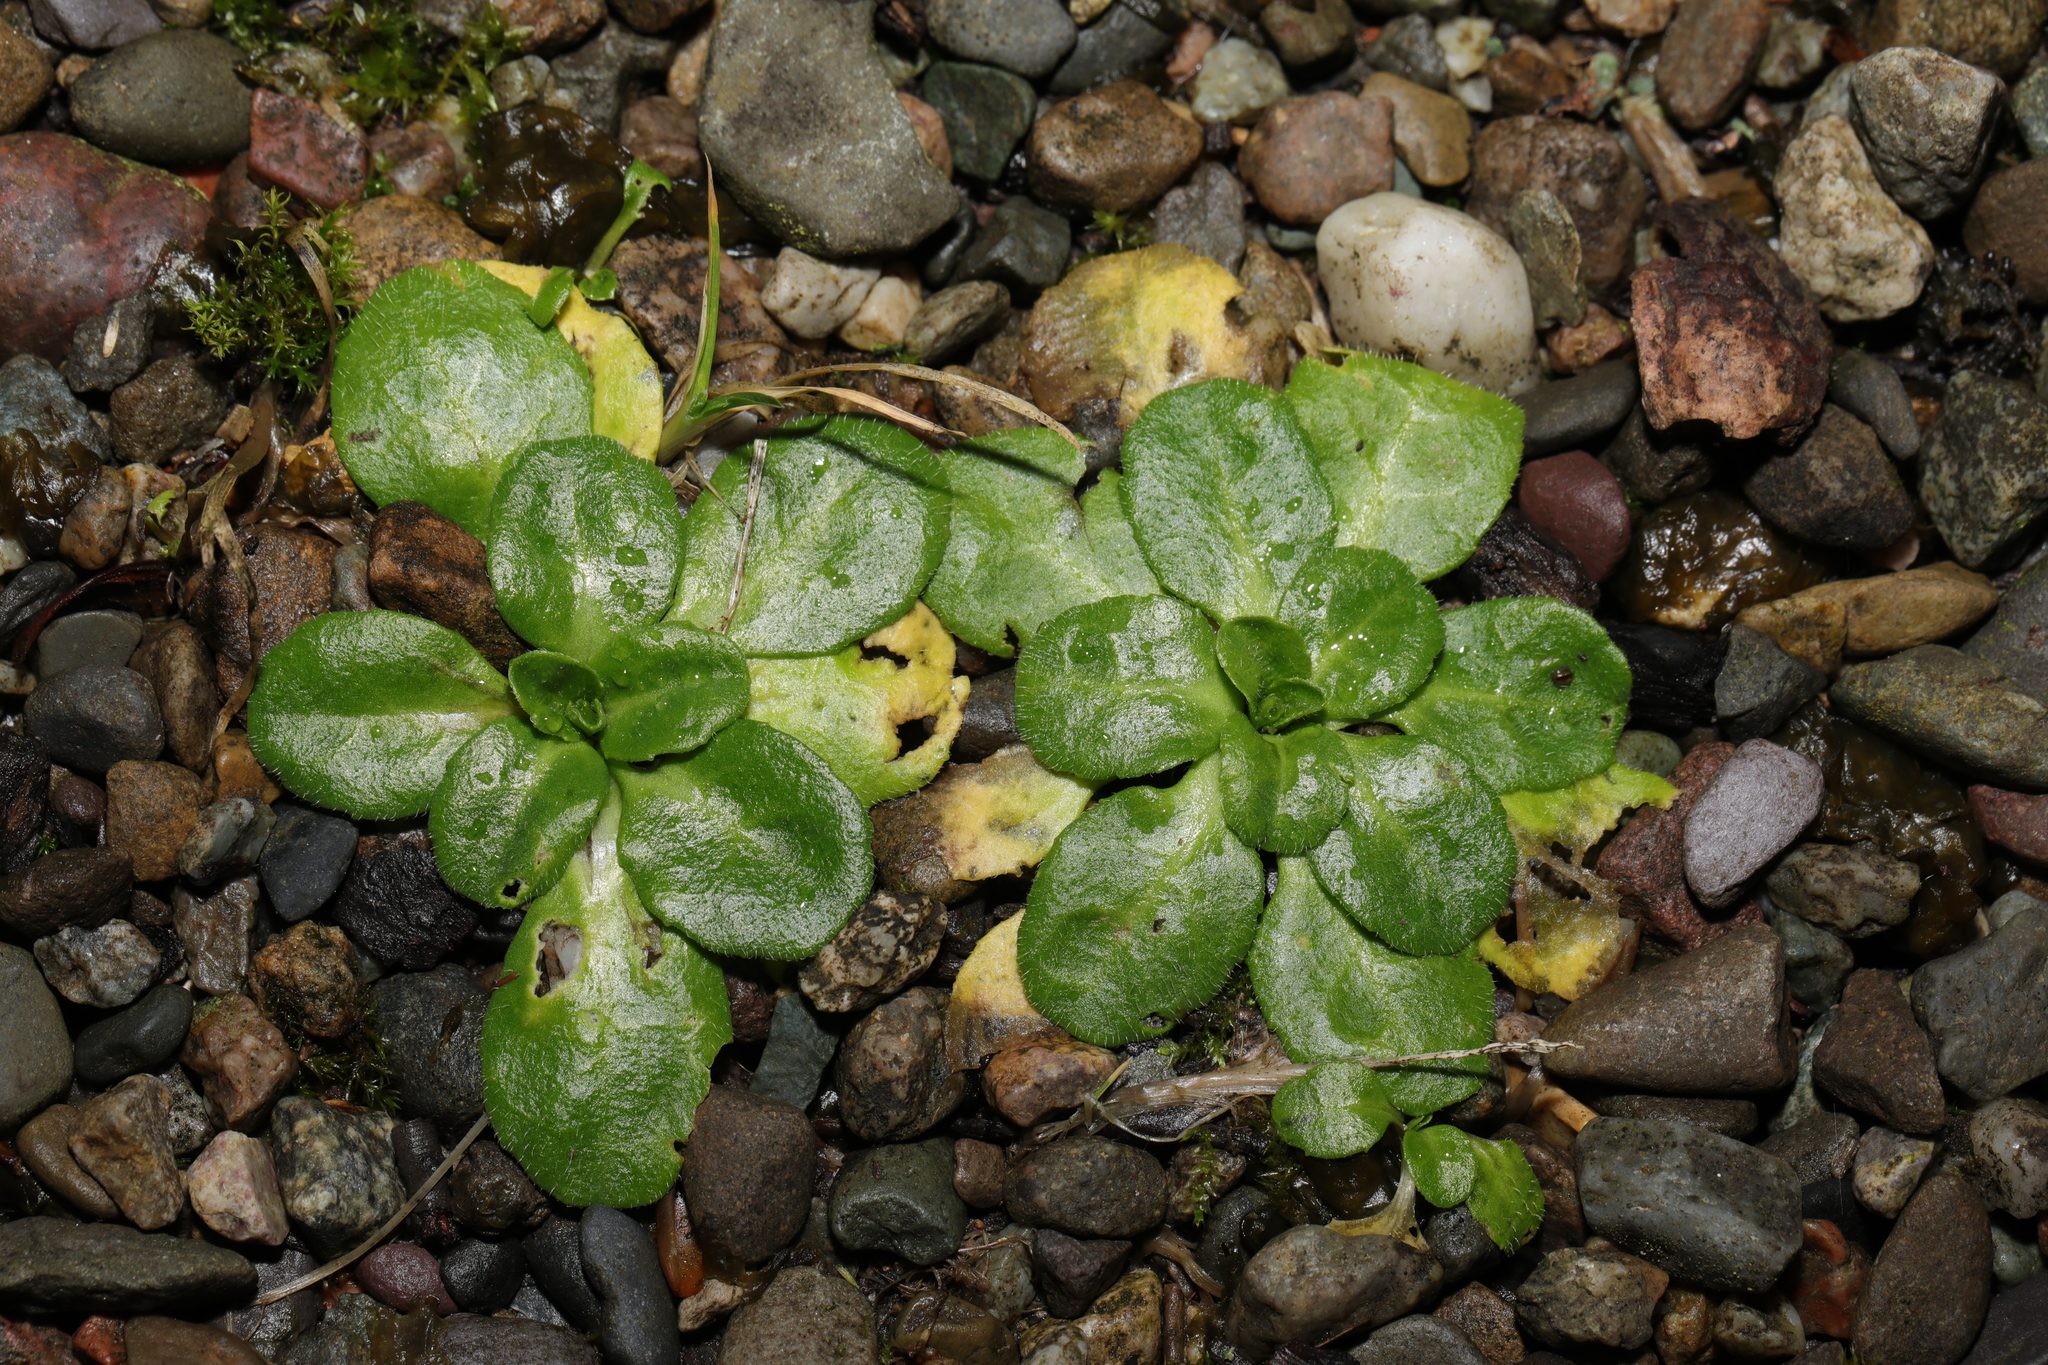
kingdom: Plantae
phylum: Tracheophyta
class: Magnoliopsida
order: Asterales
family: Asteraceae
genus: Bellis
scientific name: Bellis perennis
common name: Lawndaisy
